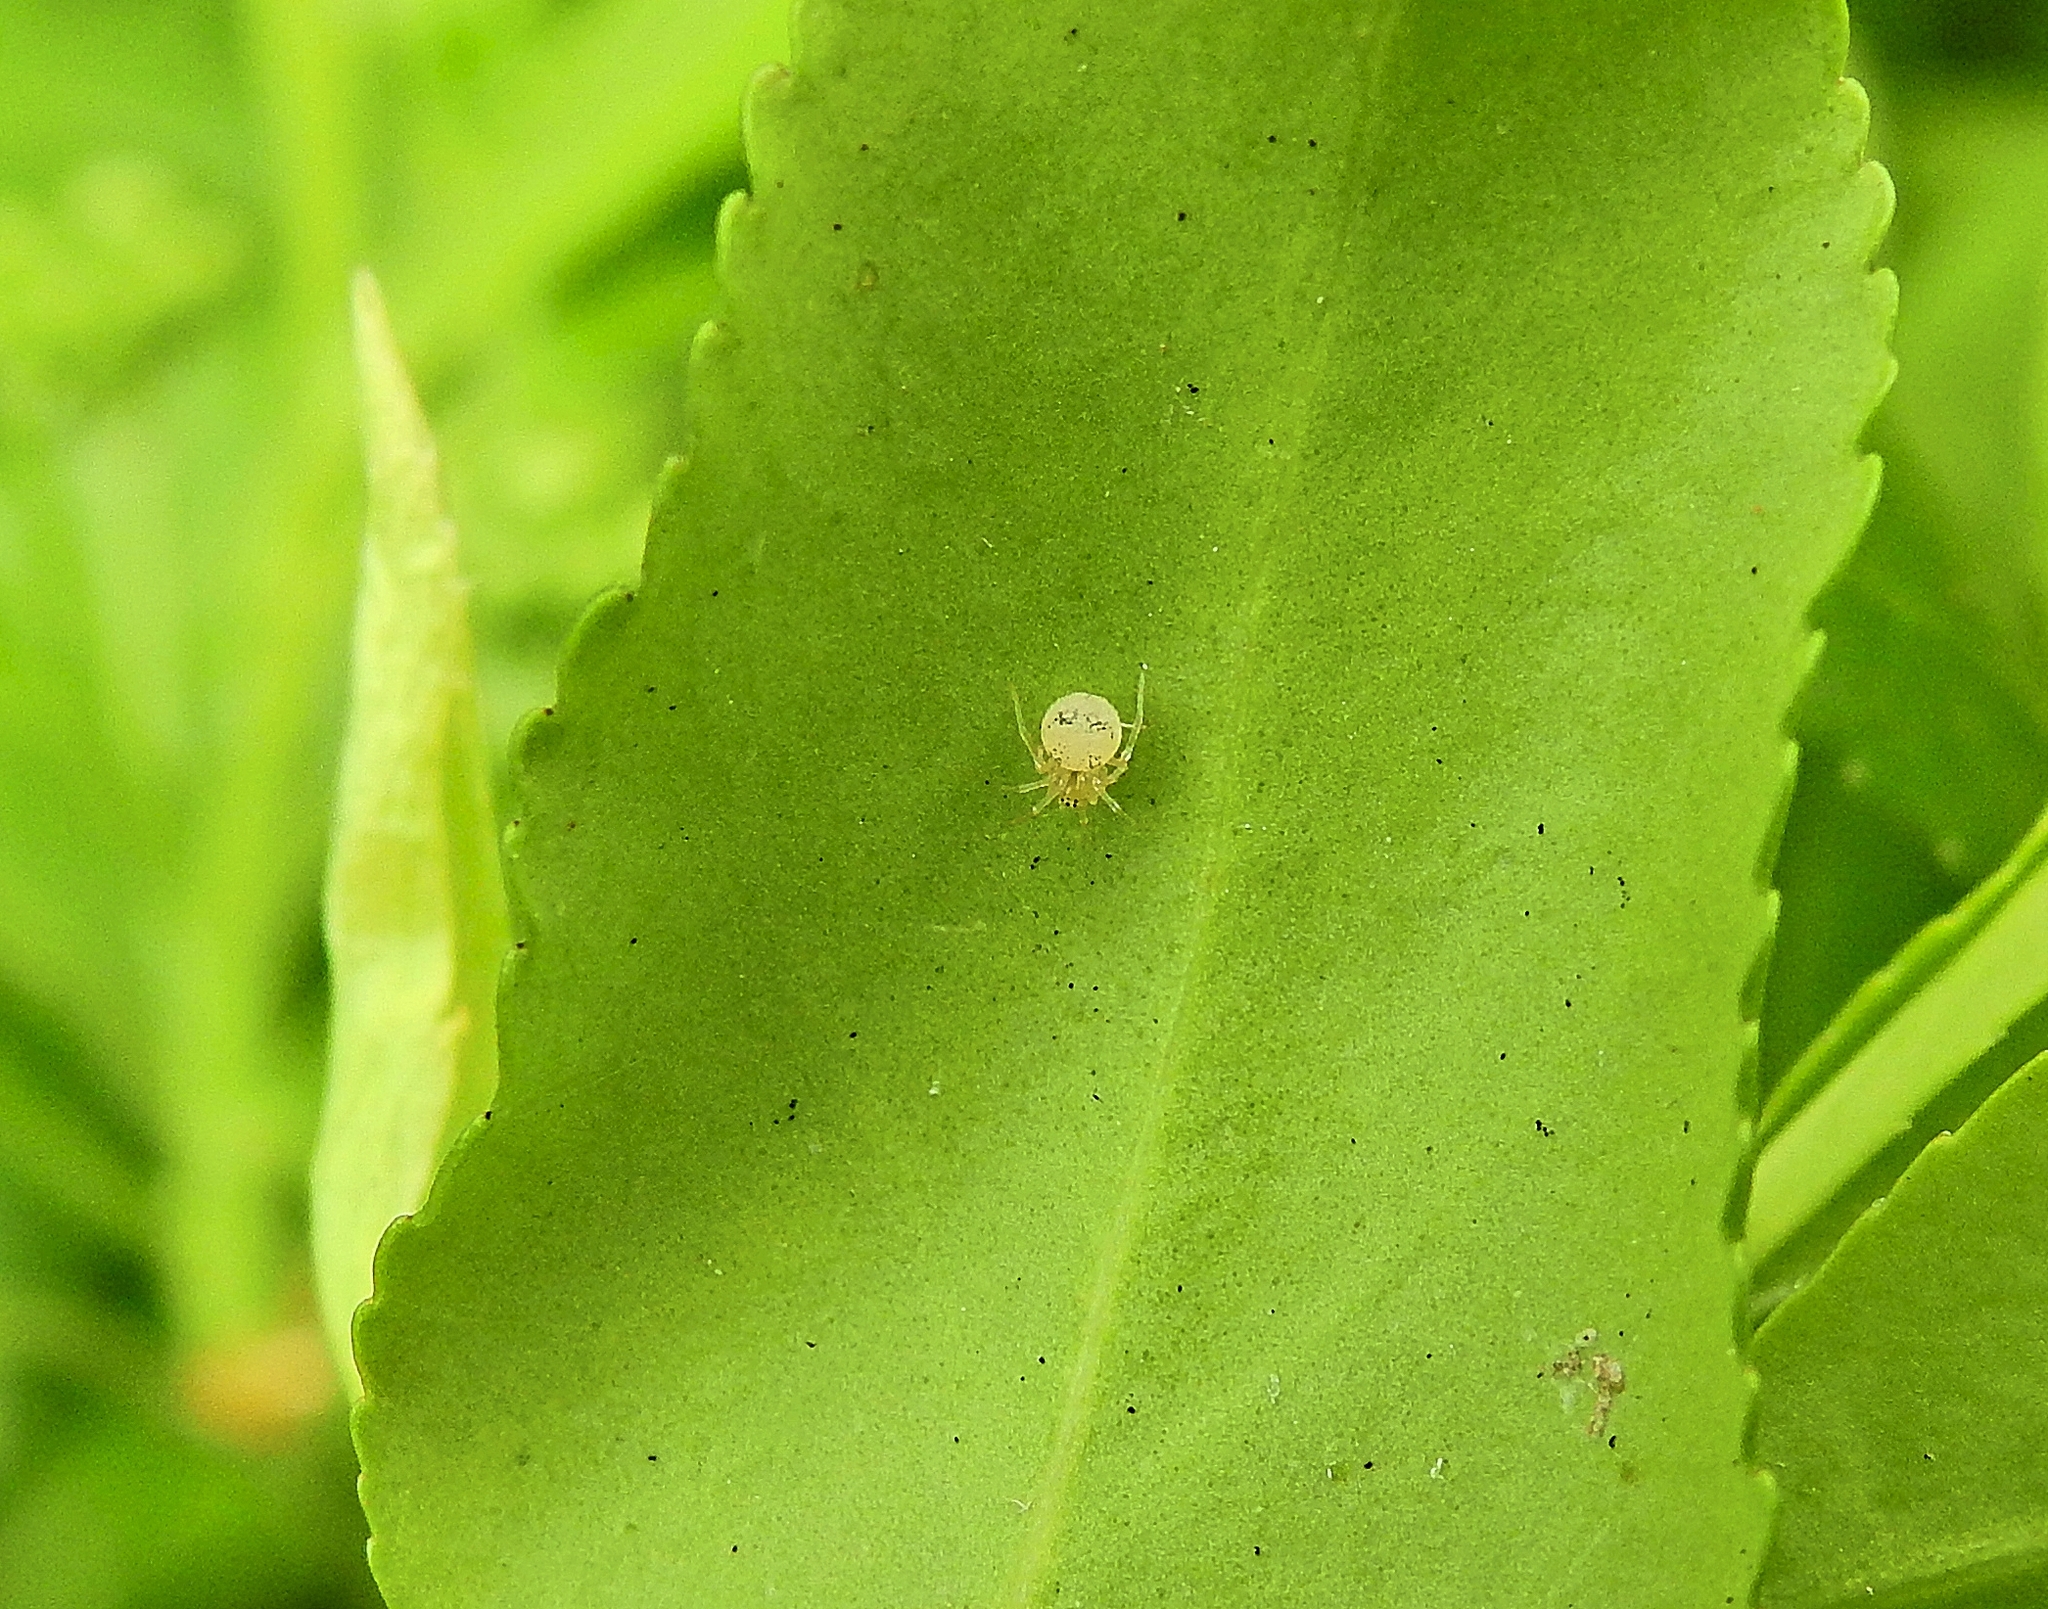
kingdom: Animalia
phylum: Arthropoda
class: Arachnida
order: Araneae
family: Theridiidae
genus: Paidiscura
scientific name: Paidiscura pallens
